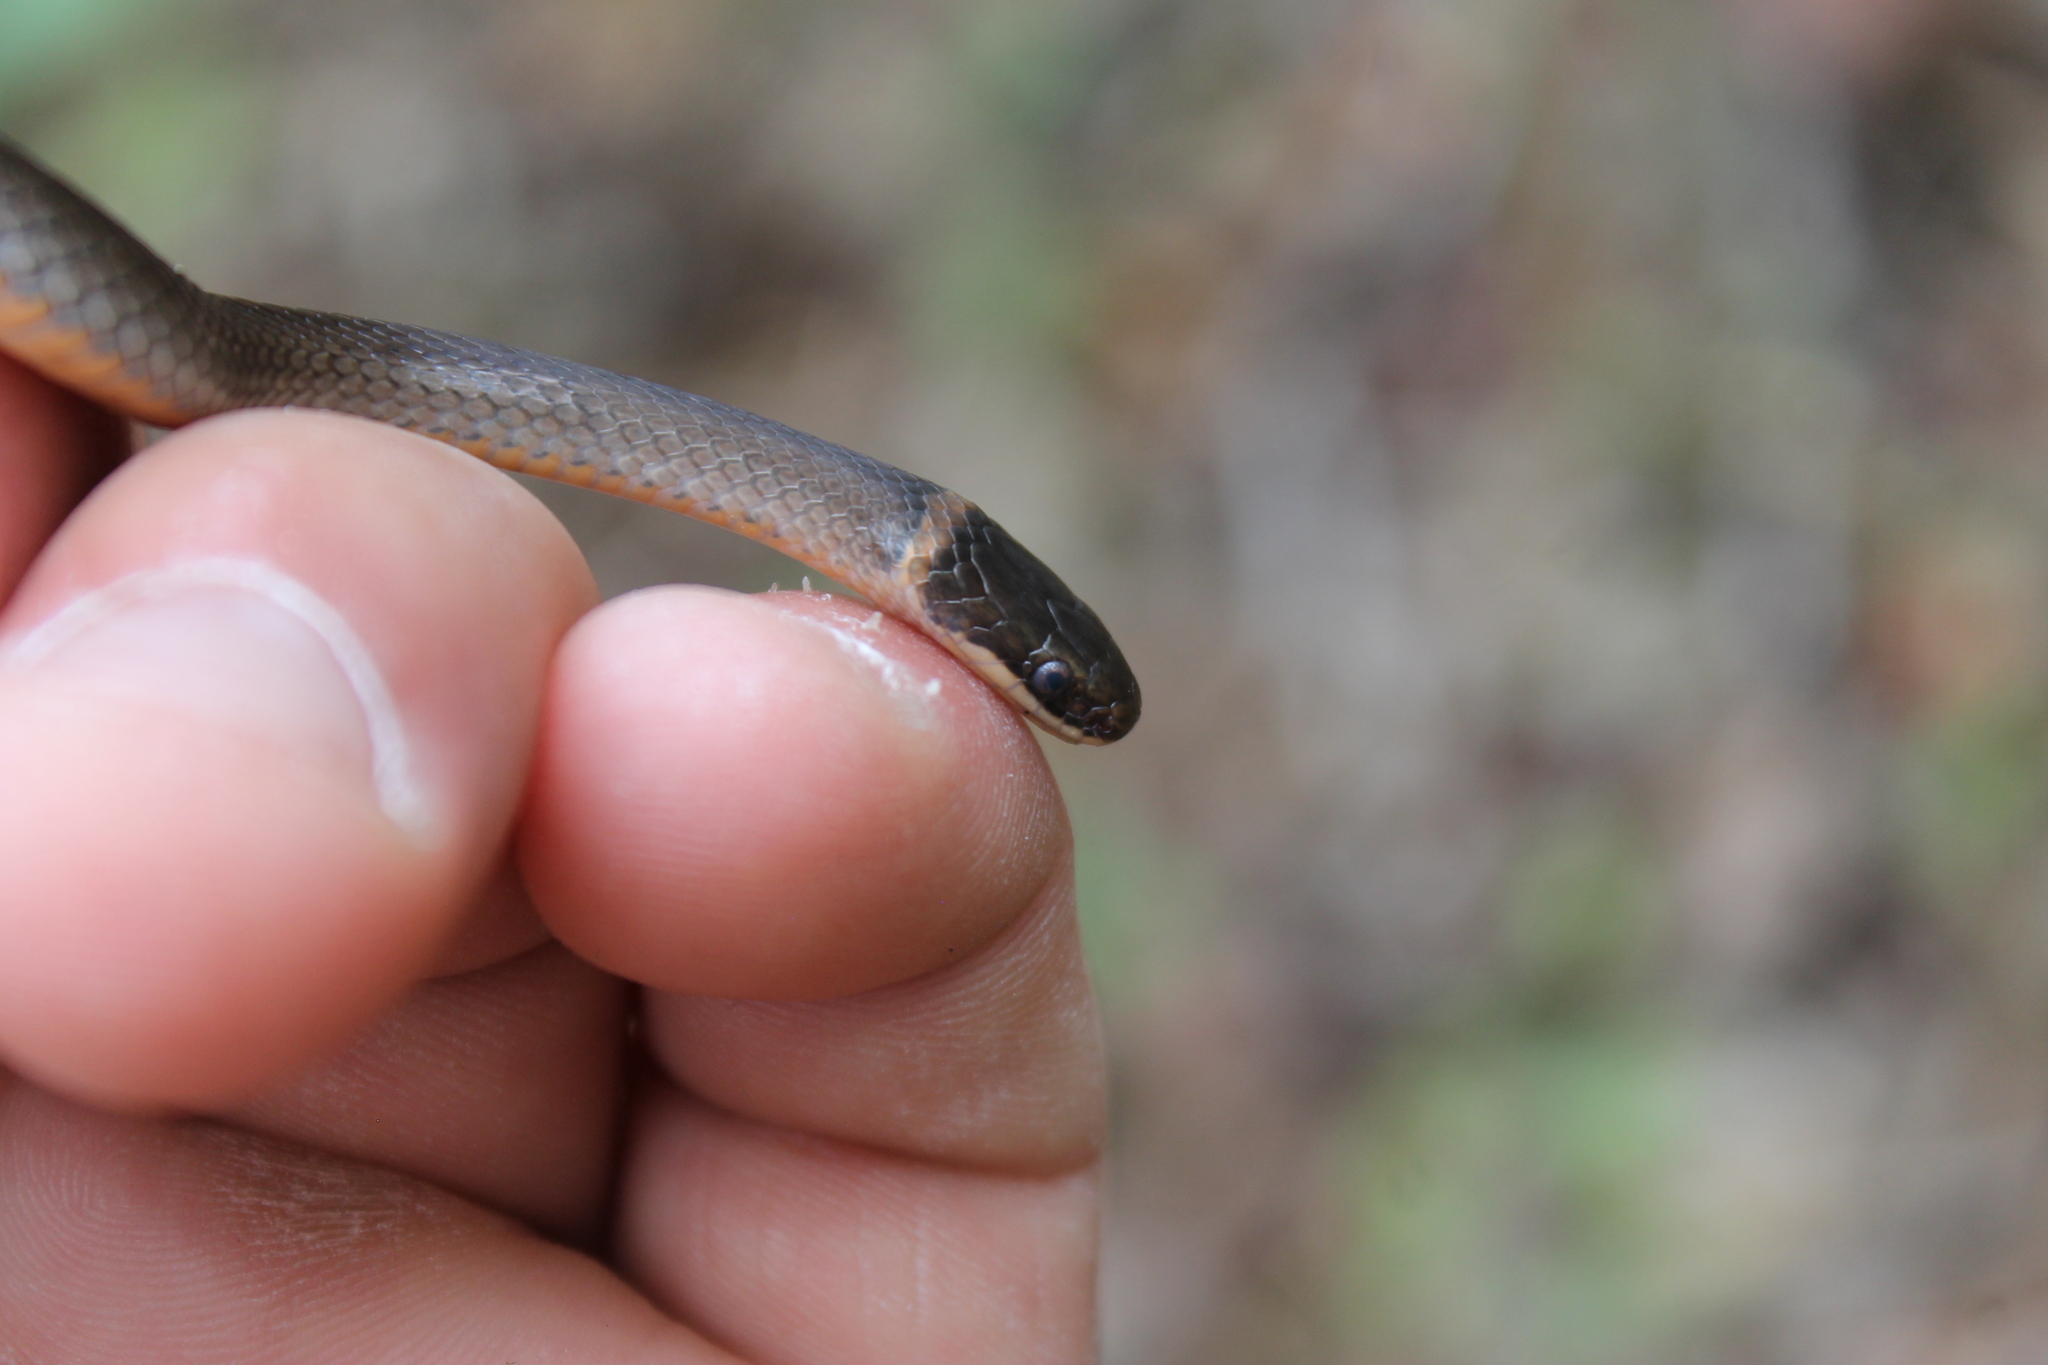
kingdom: Animalia
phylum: Chordata
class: Squamata
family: Colubridae
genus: Diadophis
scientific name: Diadophis punctatus
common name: Ringneck snake
